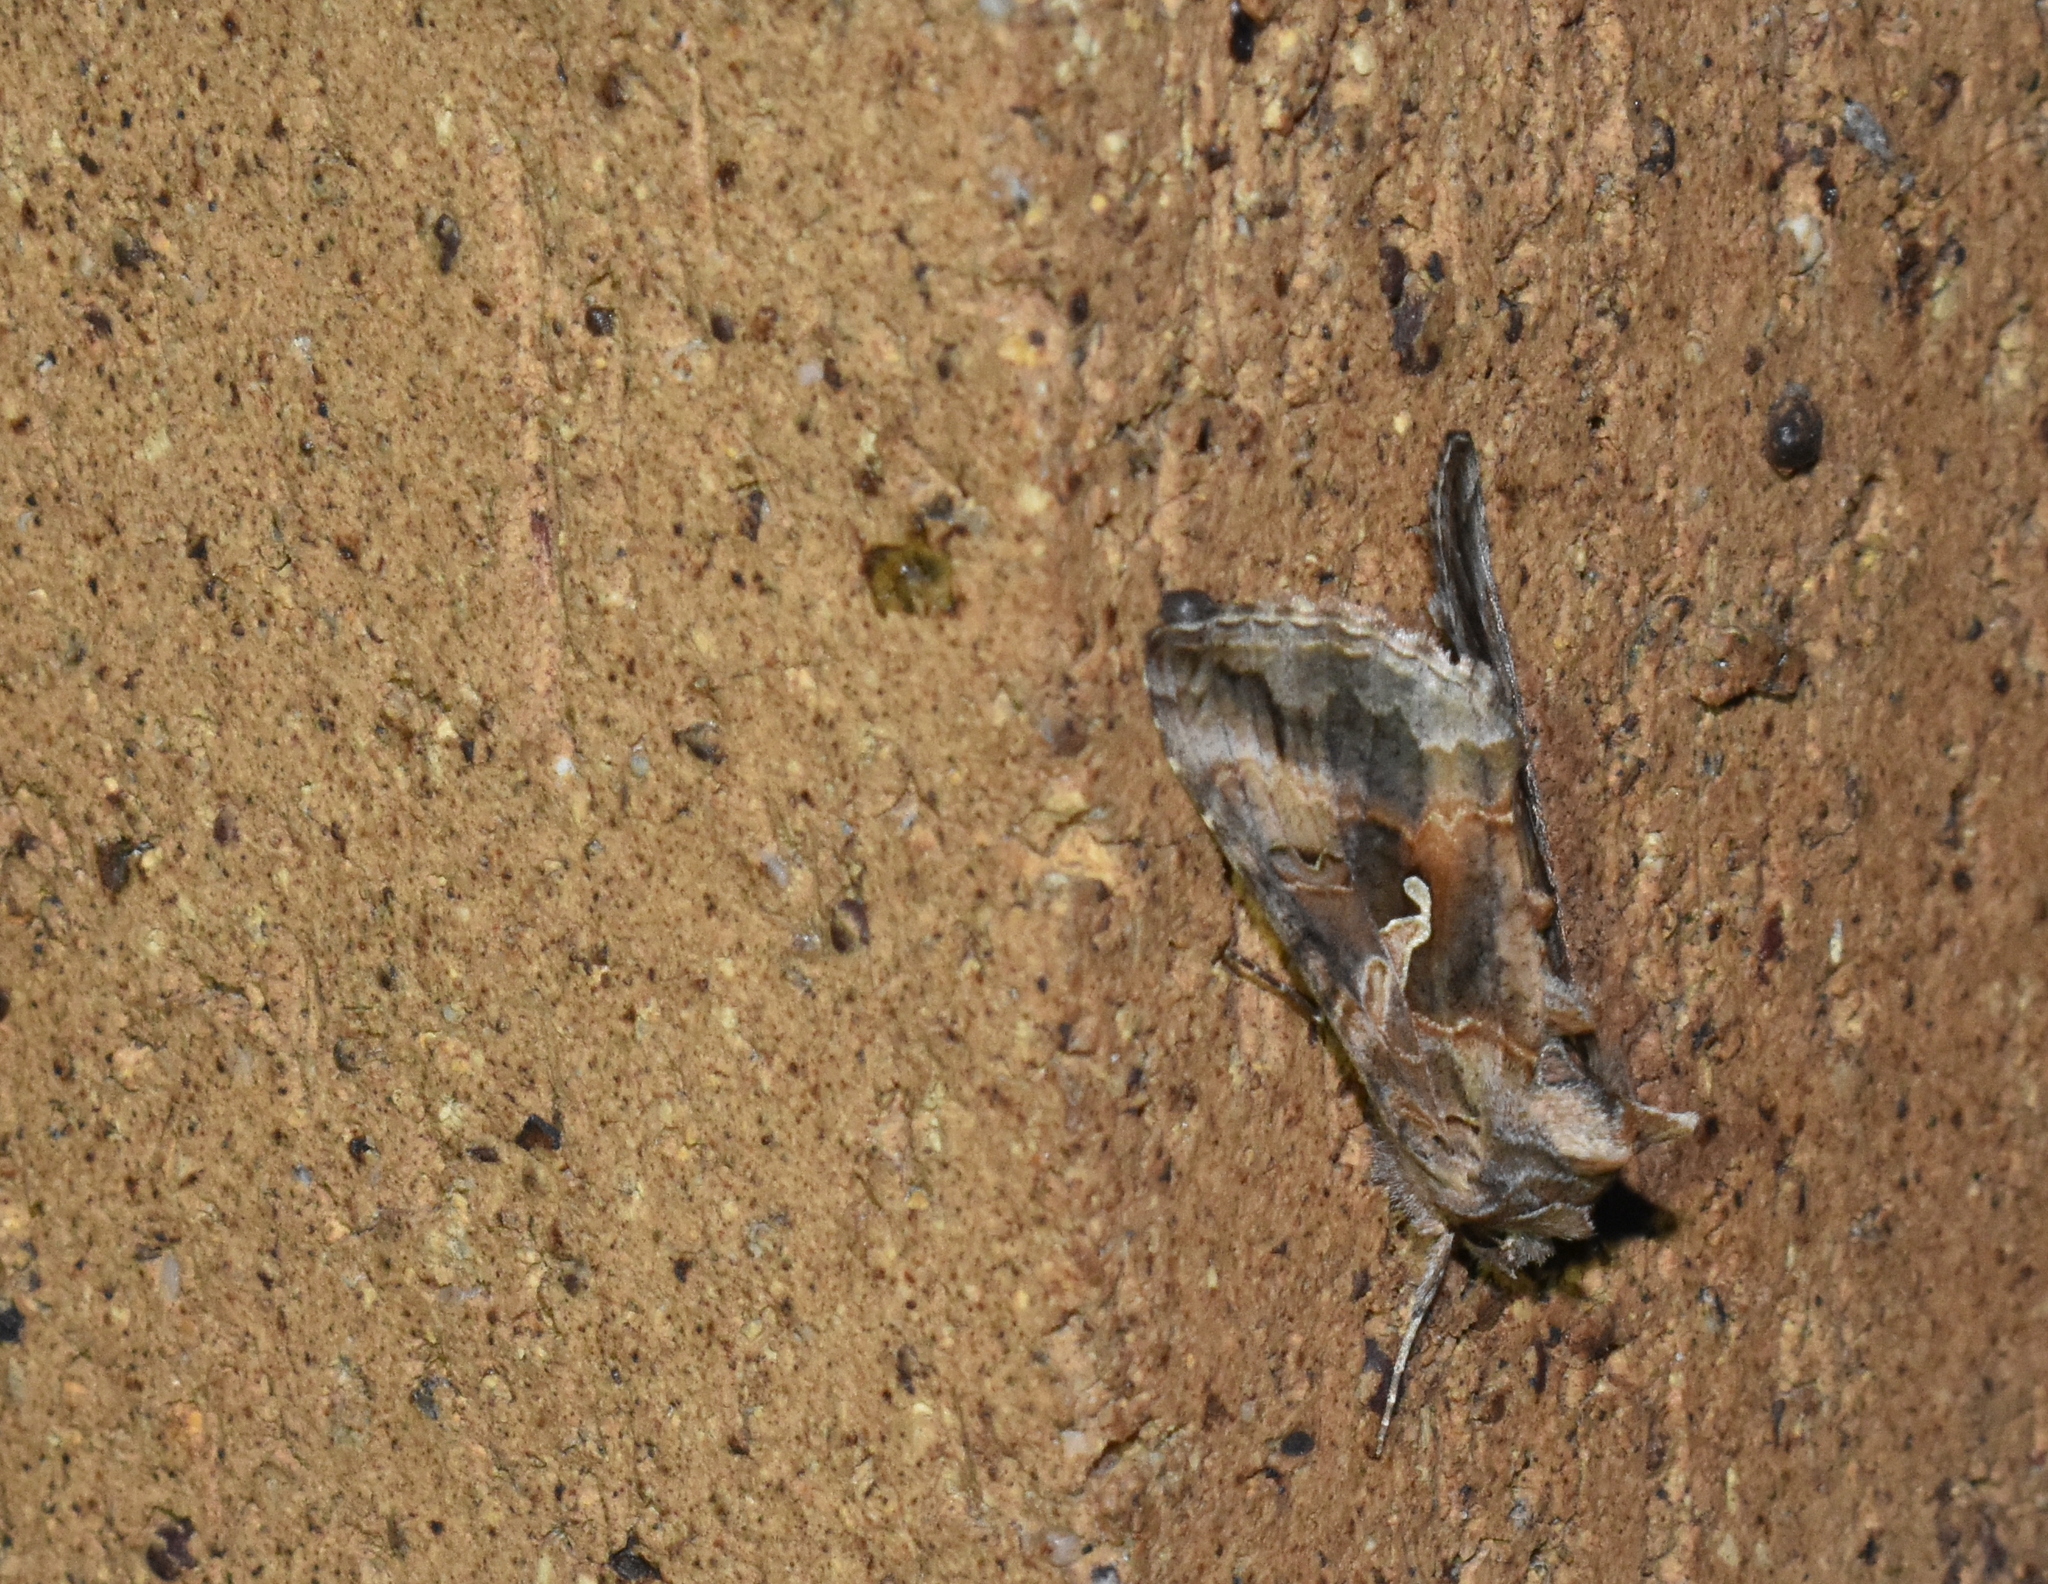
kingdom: Animalia
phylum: Arthropoda
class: Insecta
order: Lepidoptera
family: Noctuidae
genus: Autographa
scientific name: Autographa californica
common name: Alfalfa looper
